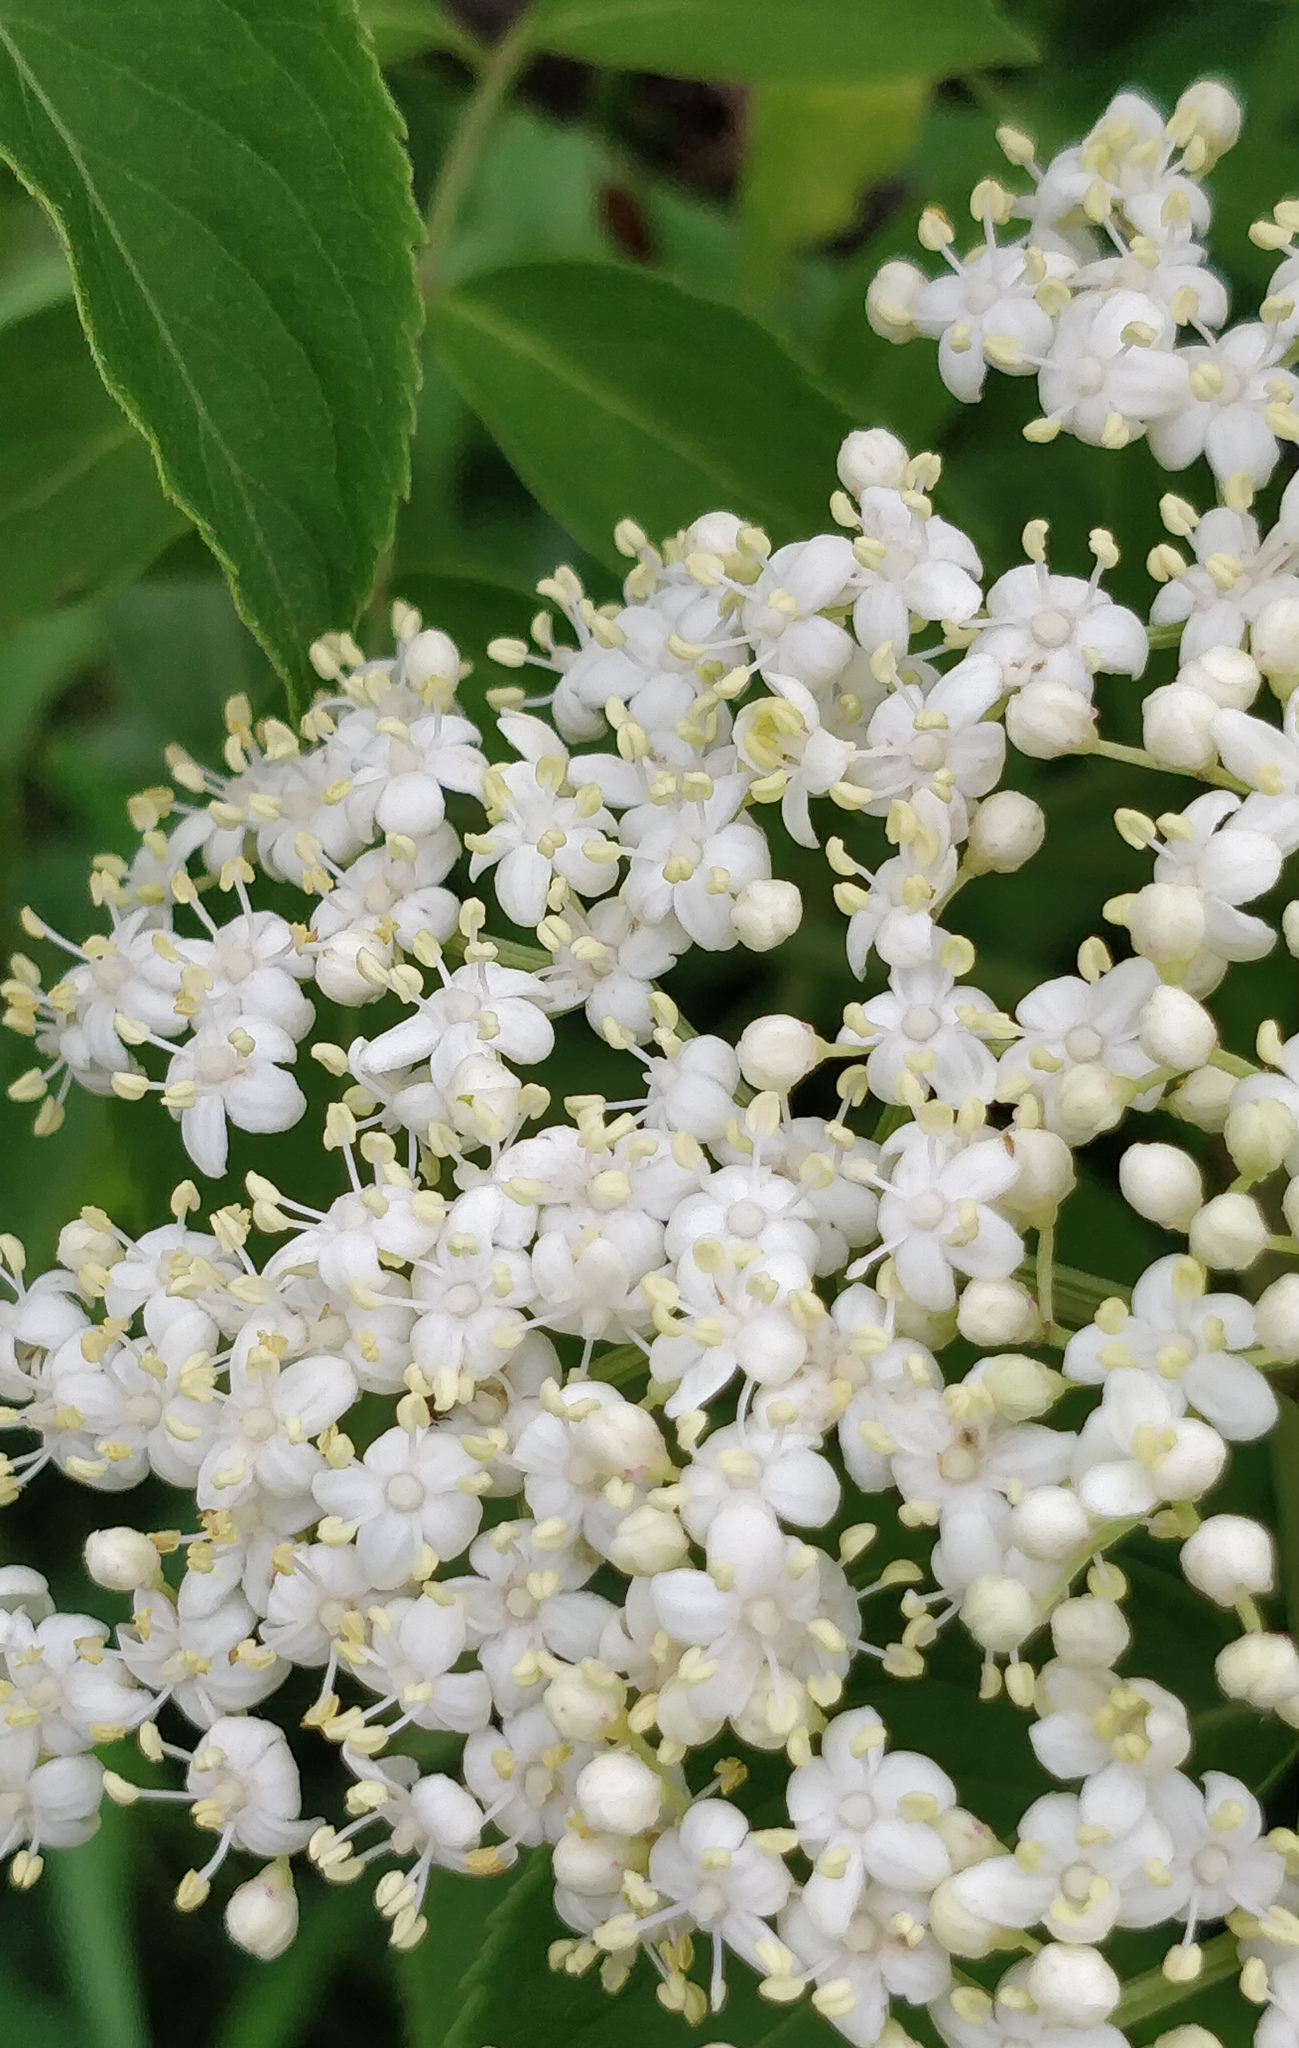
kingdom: Plantae
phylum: Tracheophyta
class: Magnoliopsida
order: Dipsacales
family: Viburnaceae
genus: Sambucus
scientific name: Sambucus canadensis
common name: American elder
